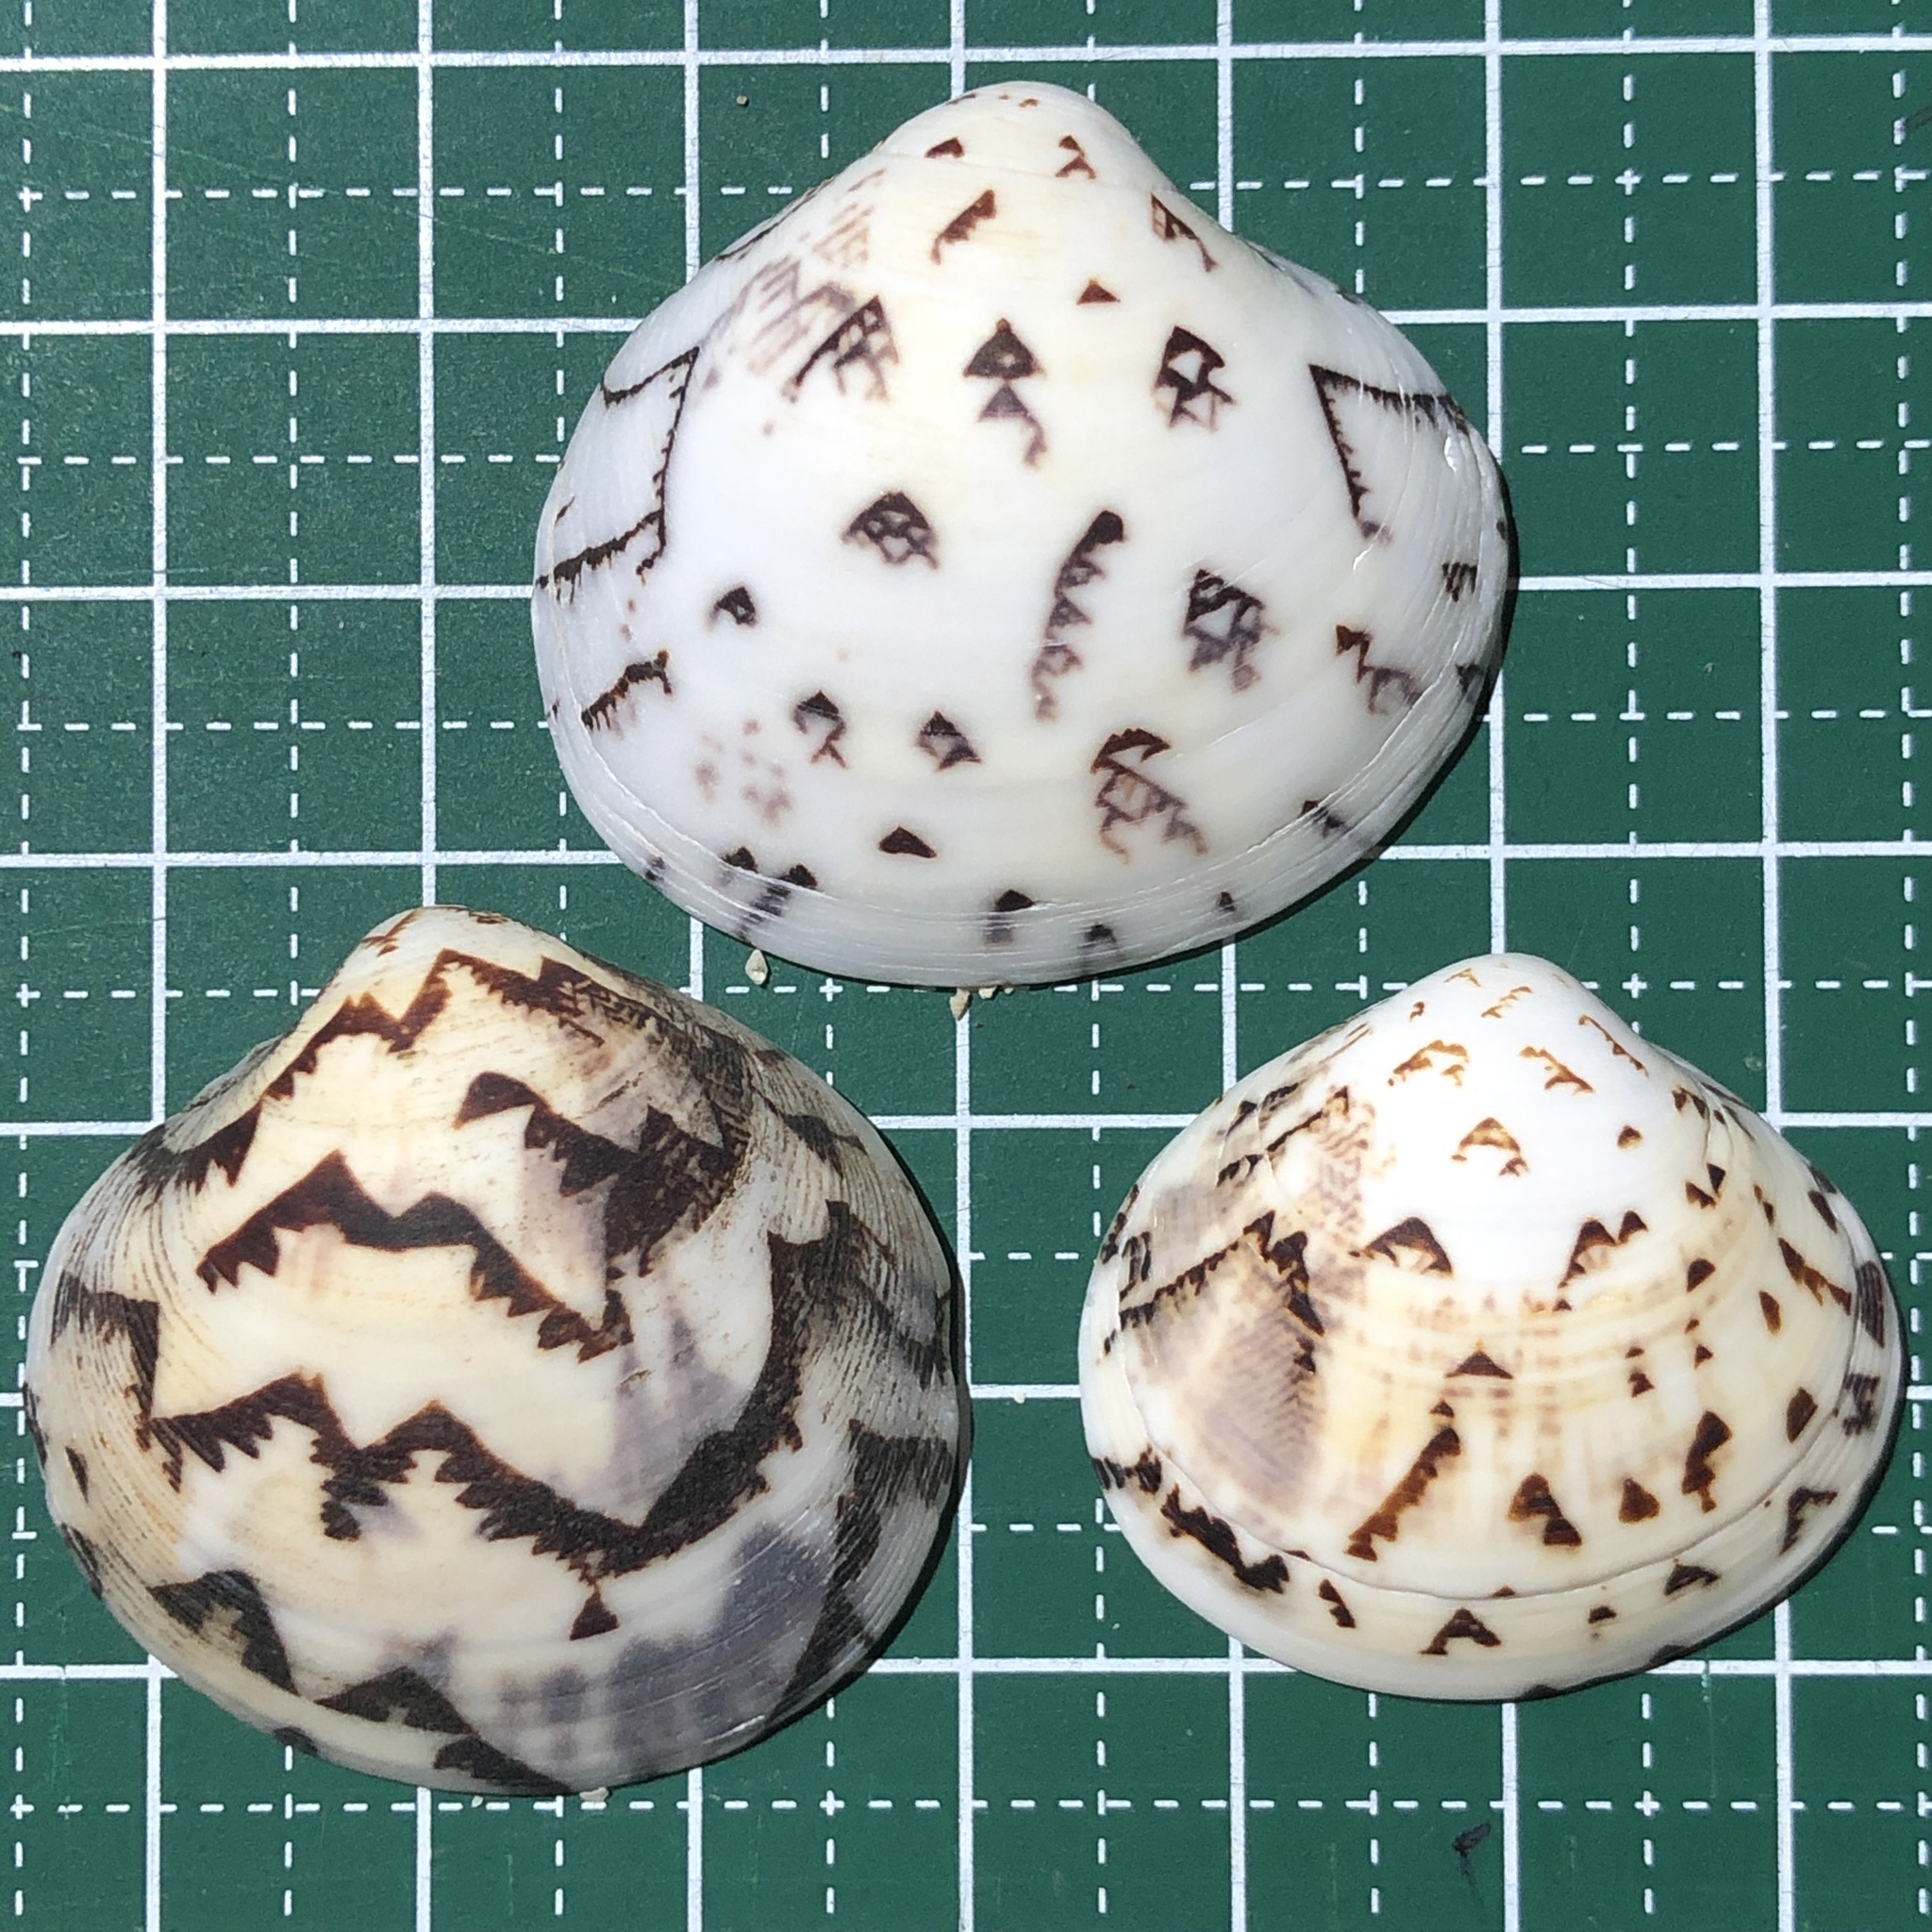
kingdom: Animalia
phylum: Mollusca
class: Bivalvia
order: Venerida
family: Veneridae
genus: Lioconcha
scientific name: Lioconcha castrensis
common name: Camp pitar-venus
